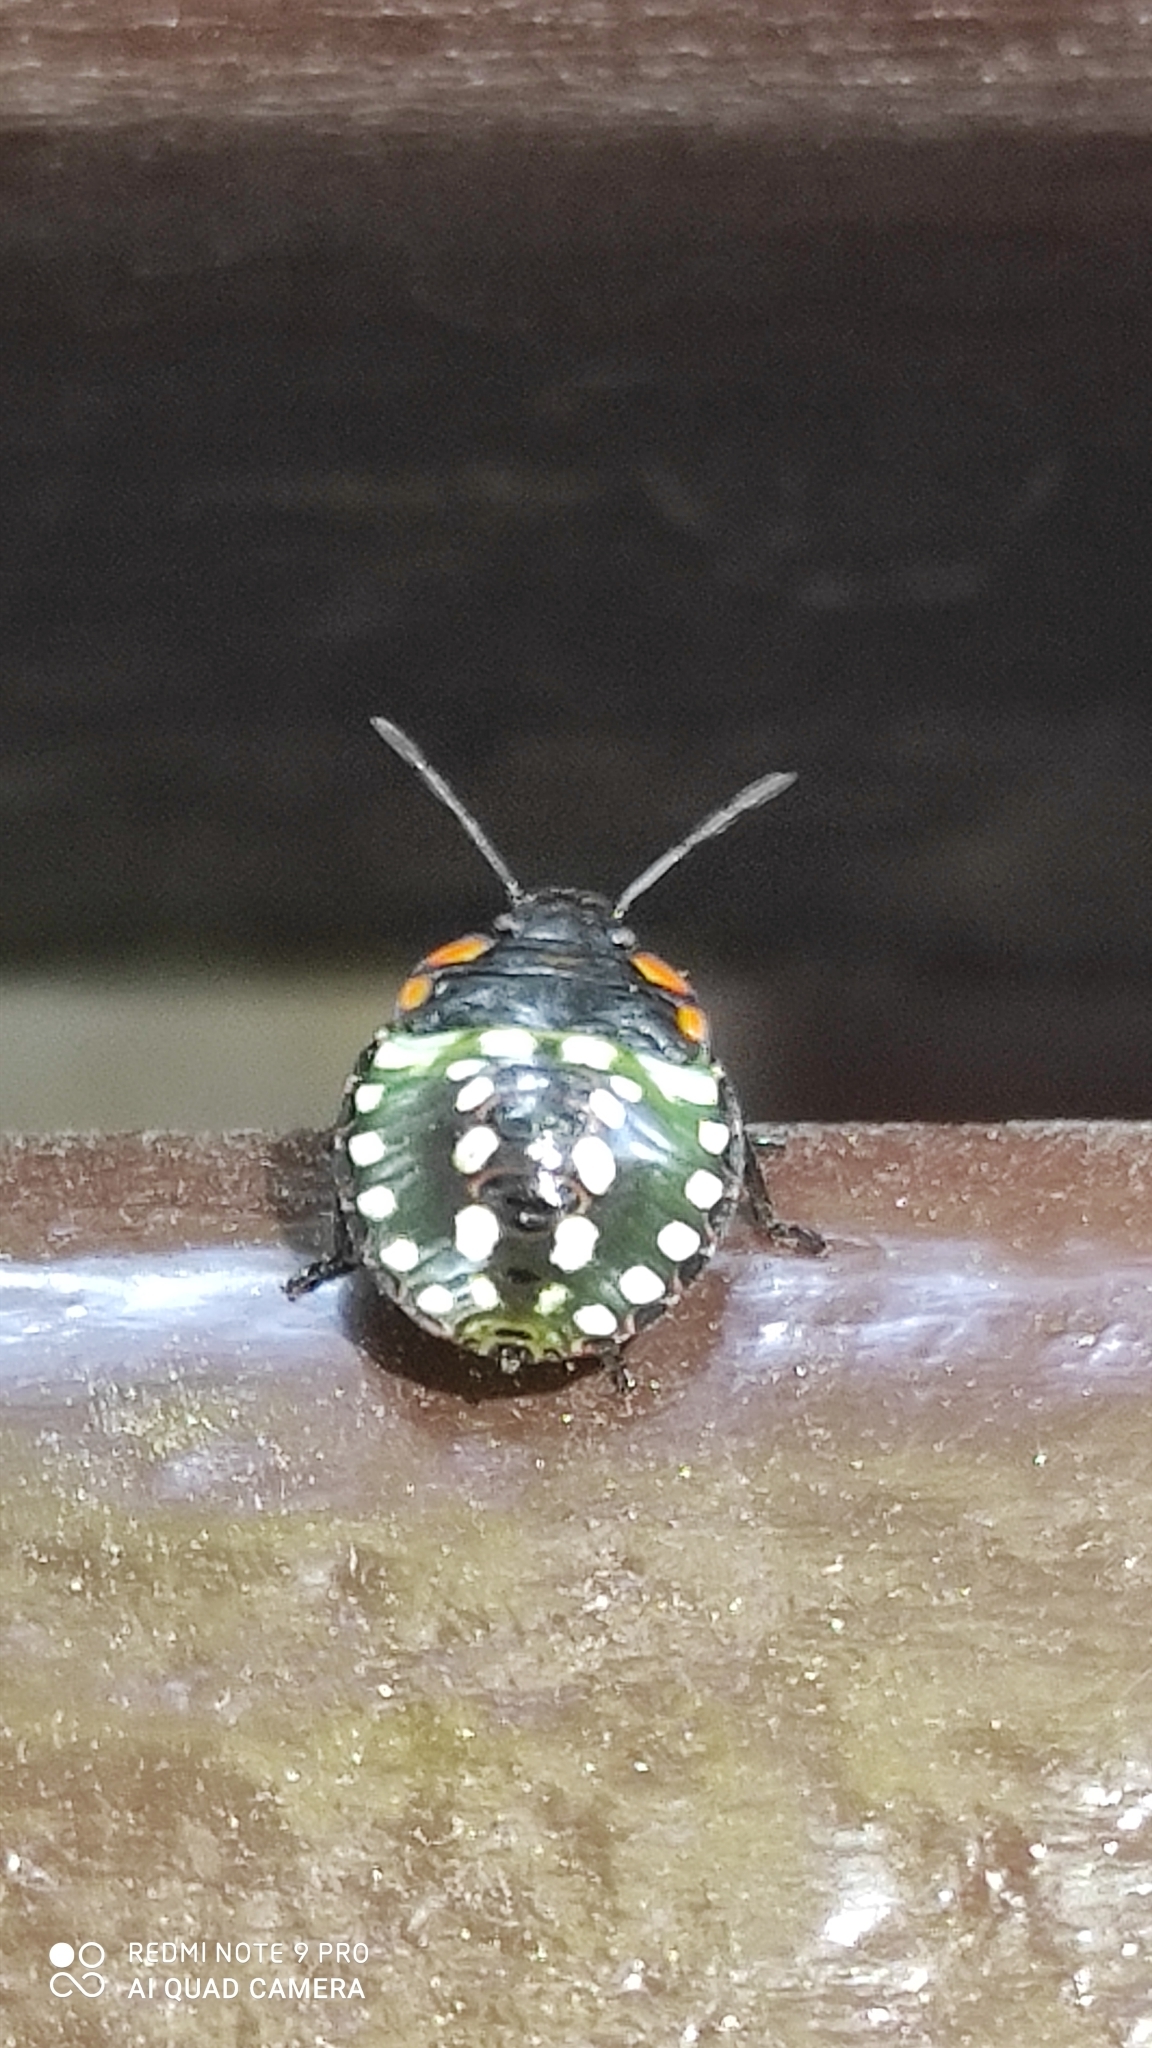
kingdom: Animalia
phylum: Arthropoda
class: Insecta
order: Hemiptera
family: Pentatomidae
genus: Nezara
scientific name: Nezara viridula
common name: Southern green stink bug
